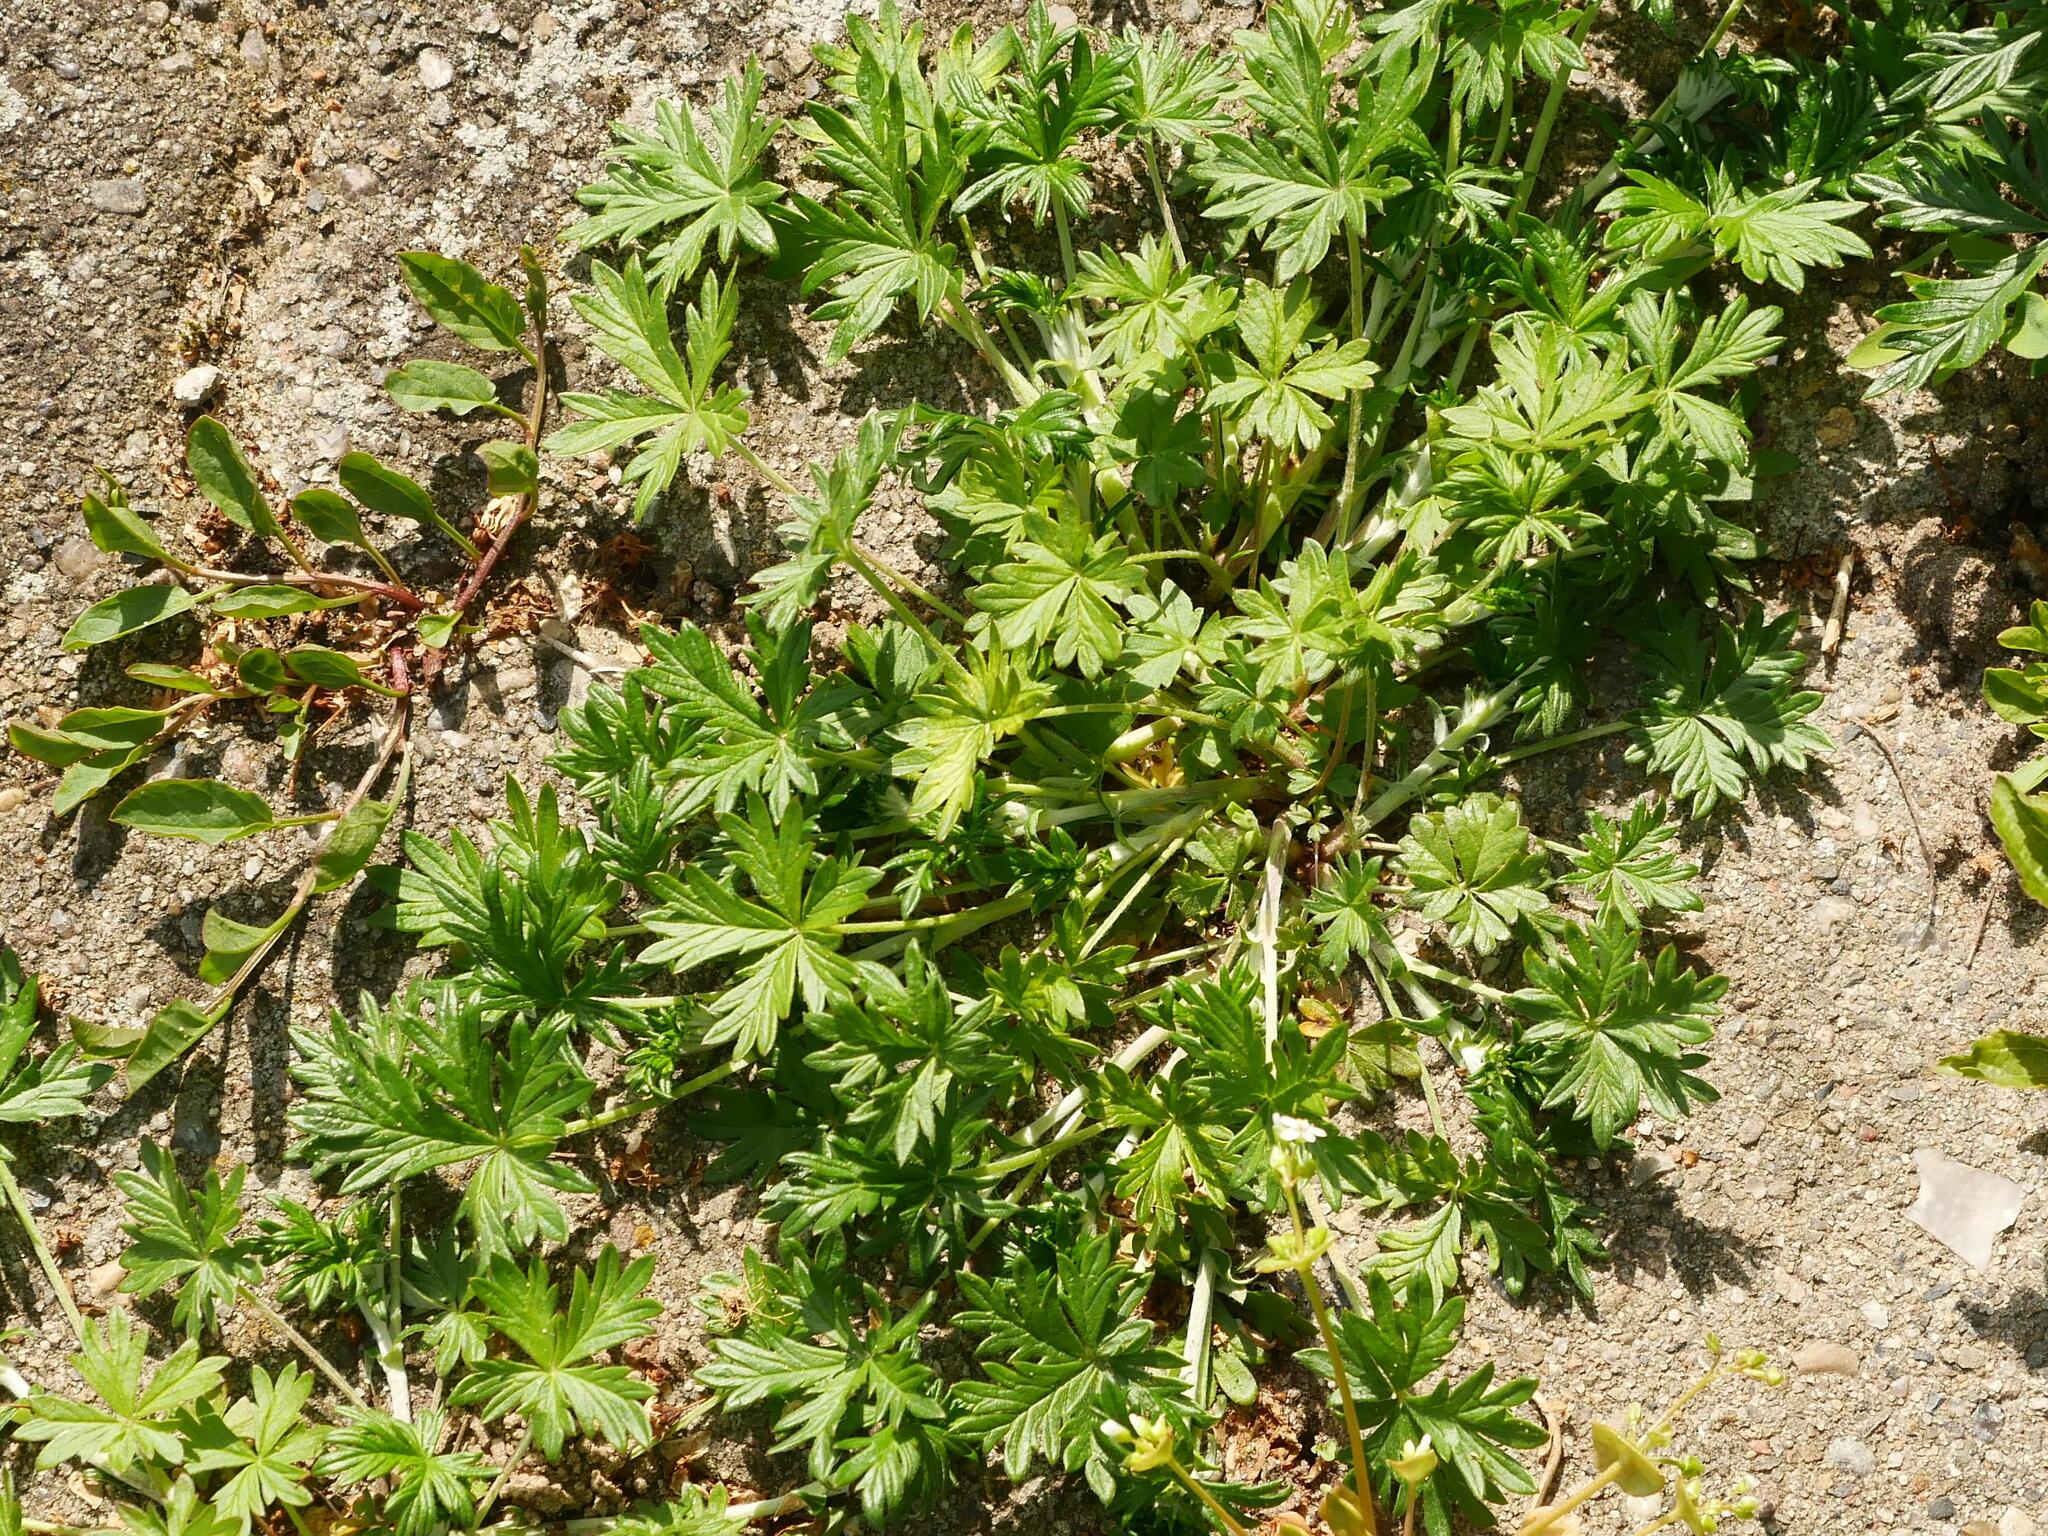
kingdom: Plantae
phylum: Tracheophyta
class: Magnoliopsida
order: Rosales
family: Rosaceae
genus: Potentilla
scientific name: Potentilla argentea
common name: Hoary cinquefoil
